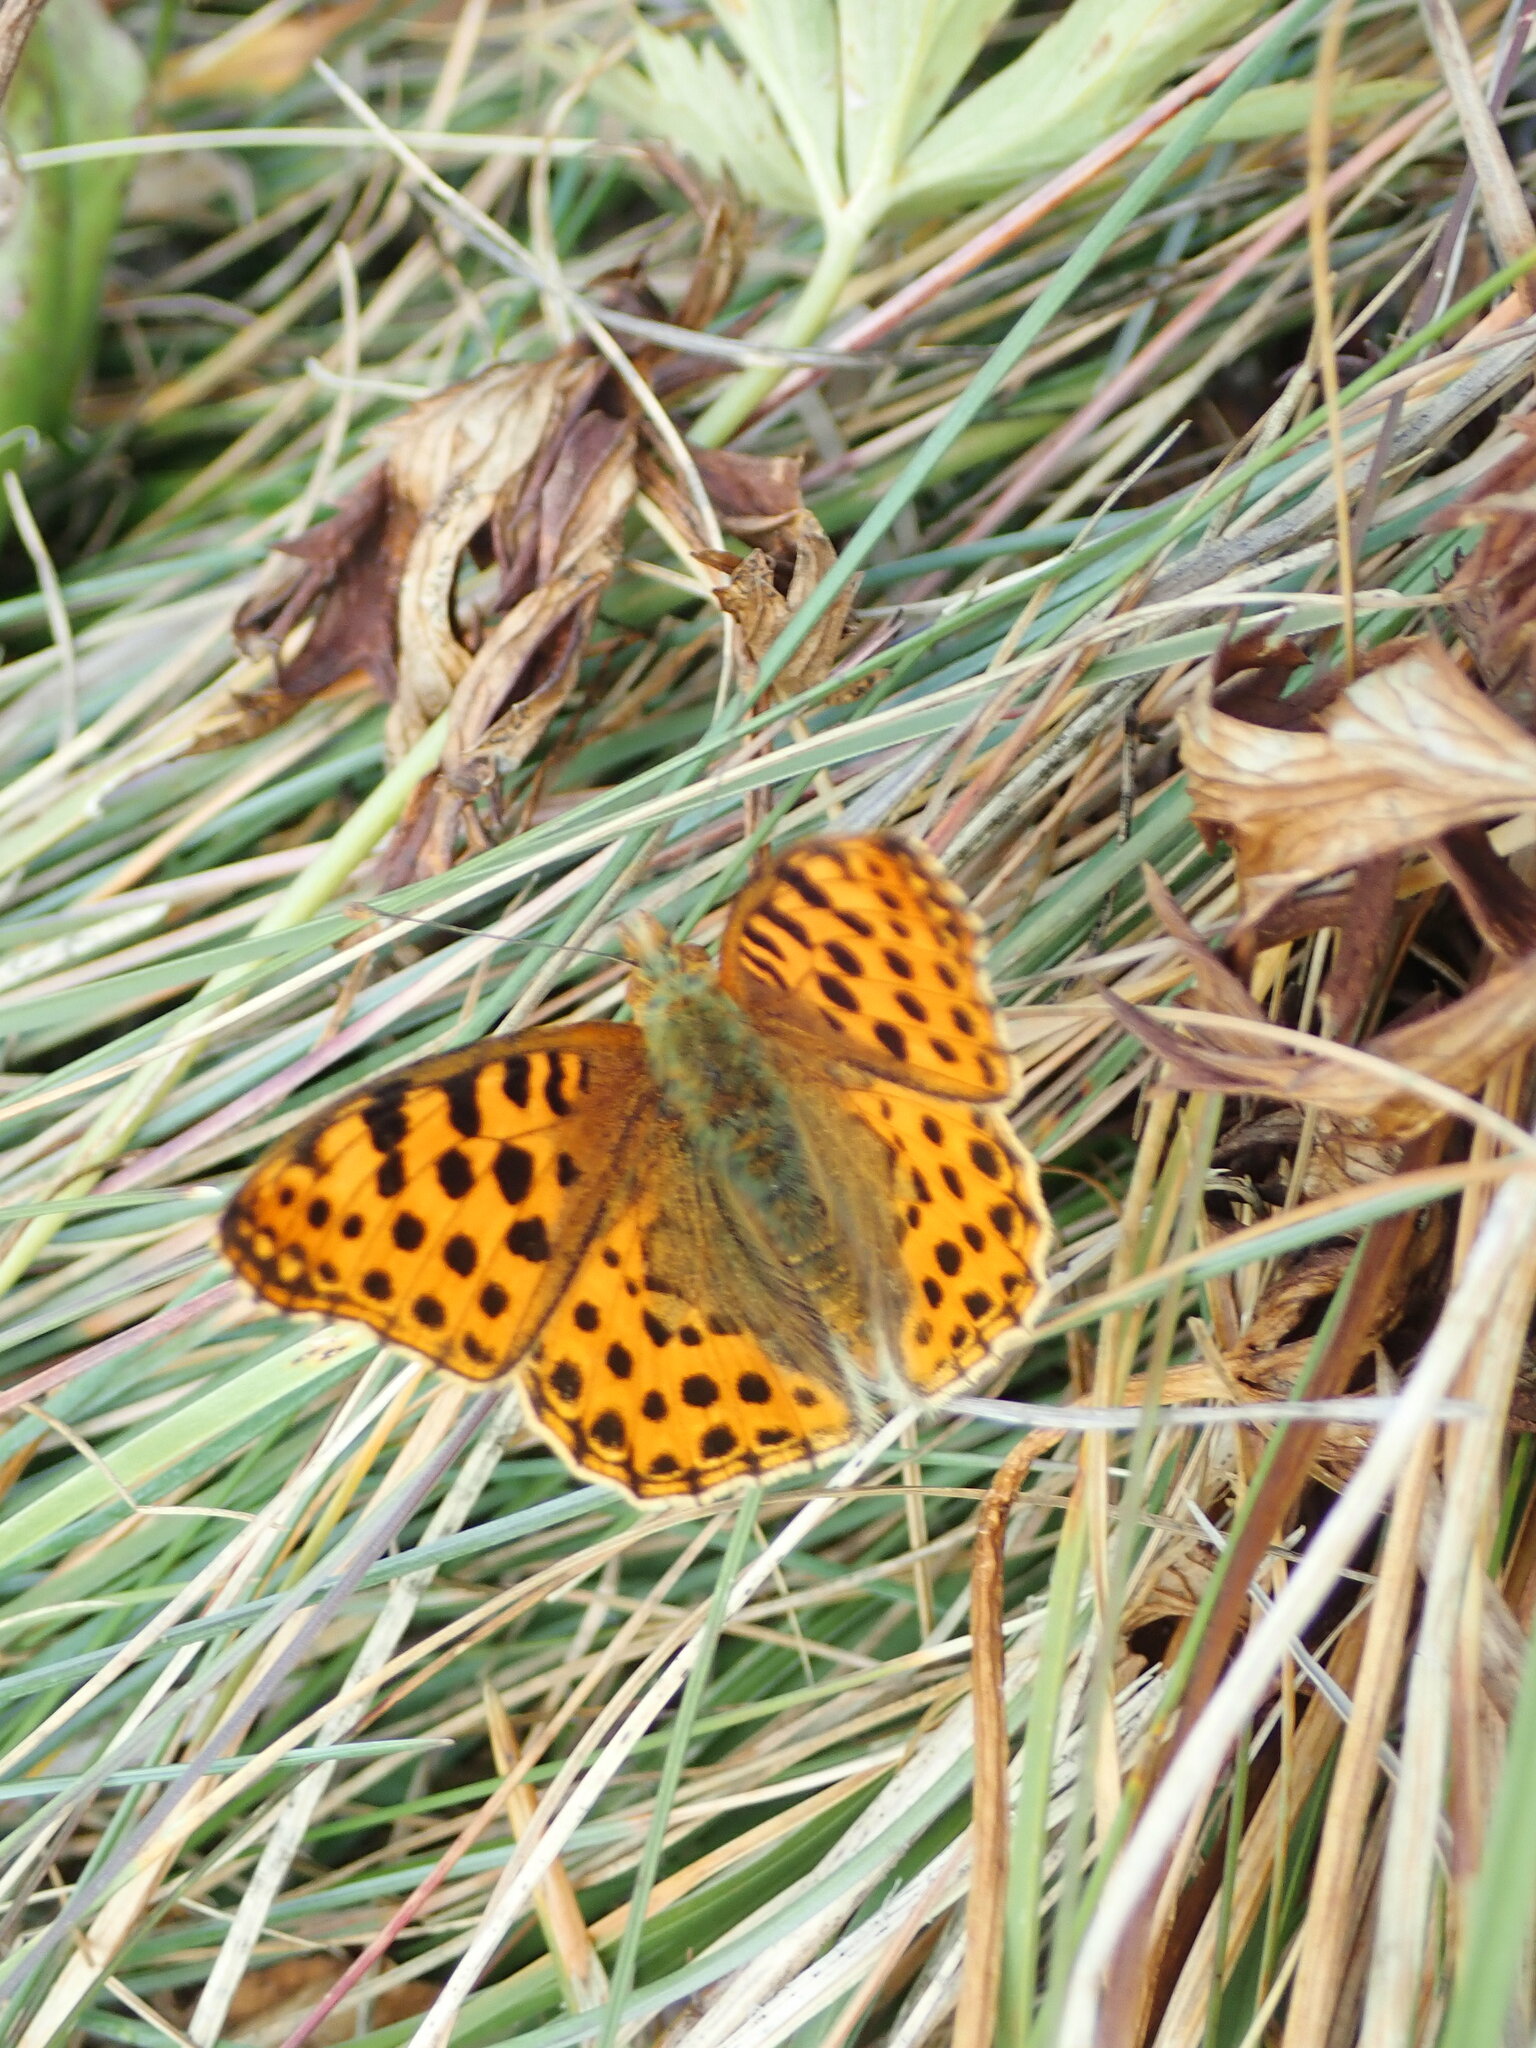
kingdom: Animalia
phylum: Arthropoda
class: Insecta
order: Lepidoptera
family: Nymphalidae
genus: Issoria
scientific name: Issoria lathonia
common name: Queen of spain fritillary
